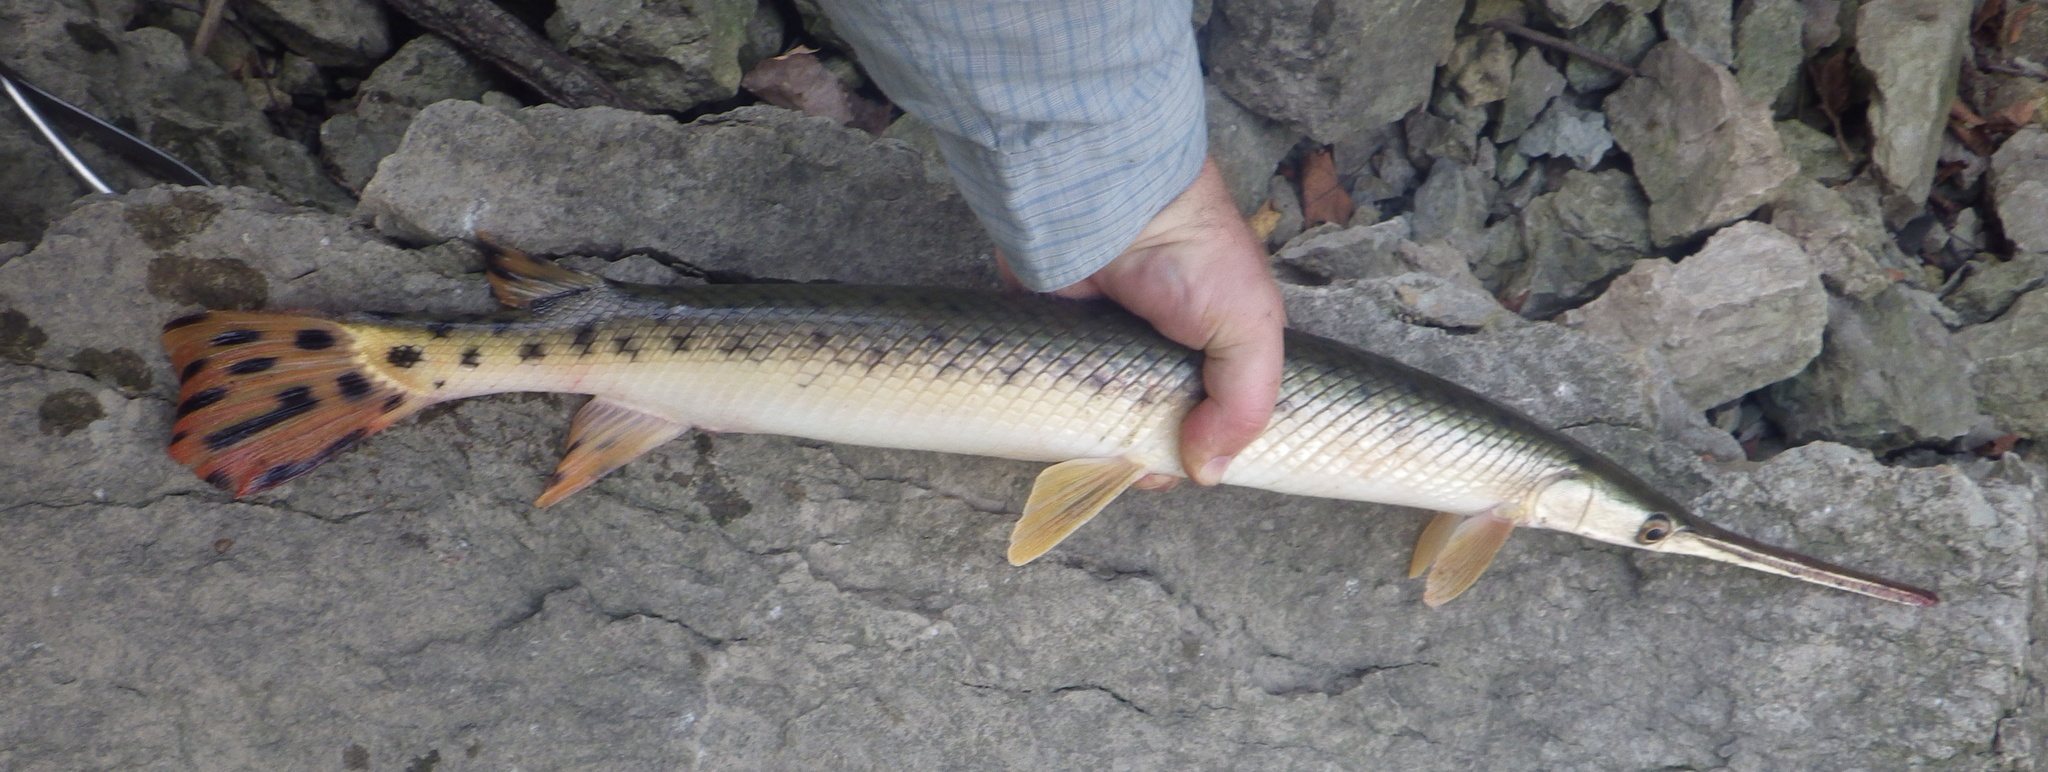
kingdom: Animalia
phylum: Chordata
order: Lepisosteiformes
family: Lepisosteidae
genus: Lepisosteus
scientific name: Lepisosteus osseus
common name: Longnose gar
